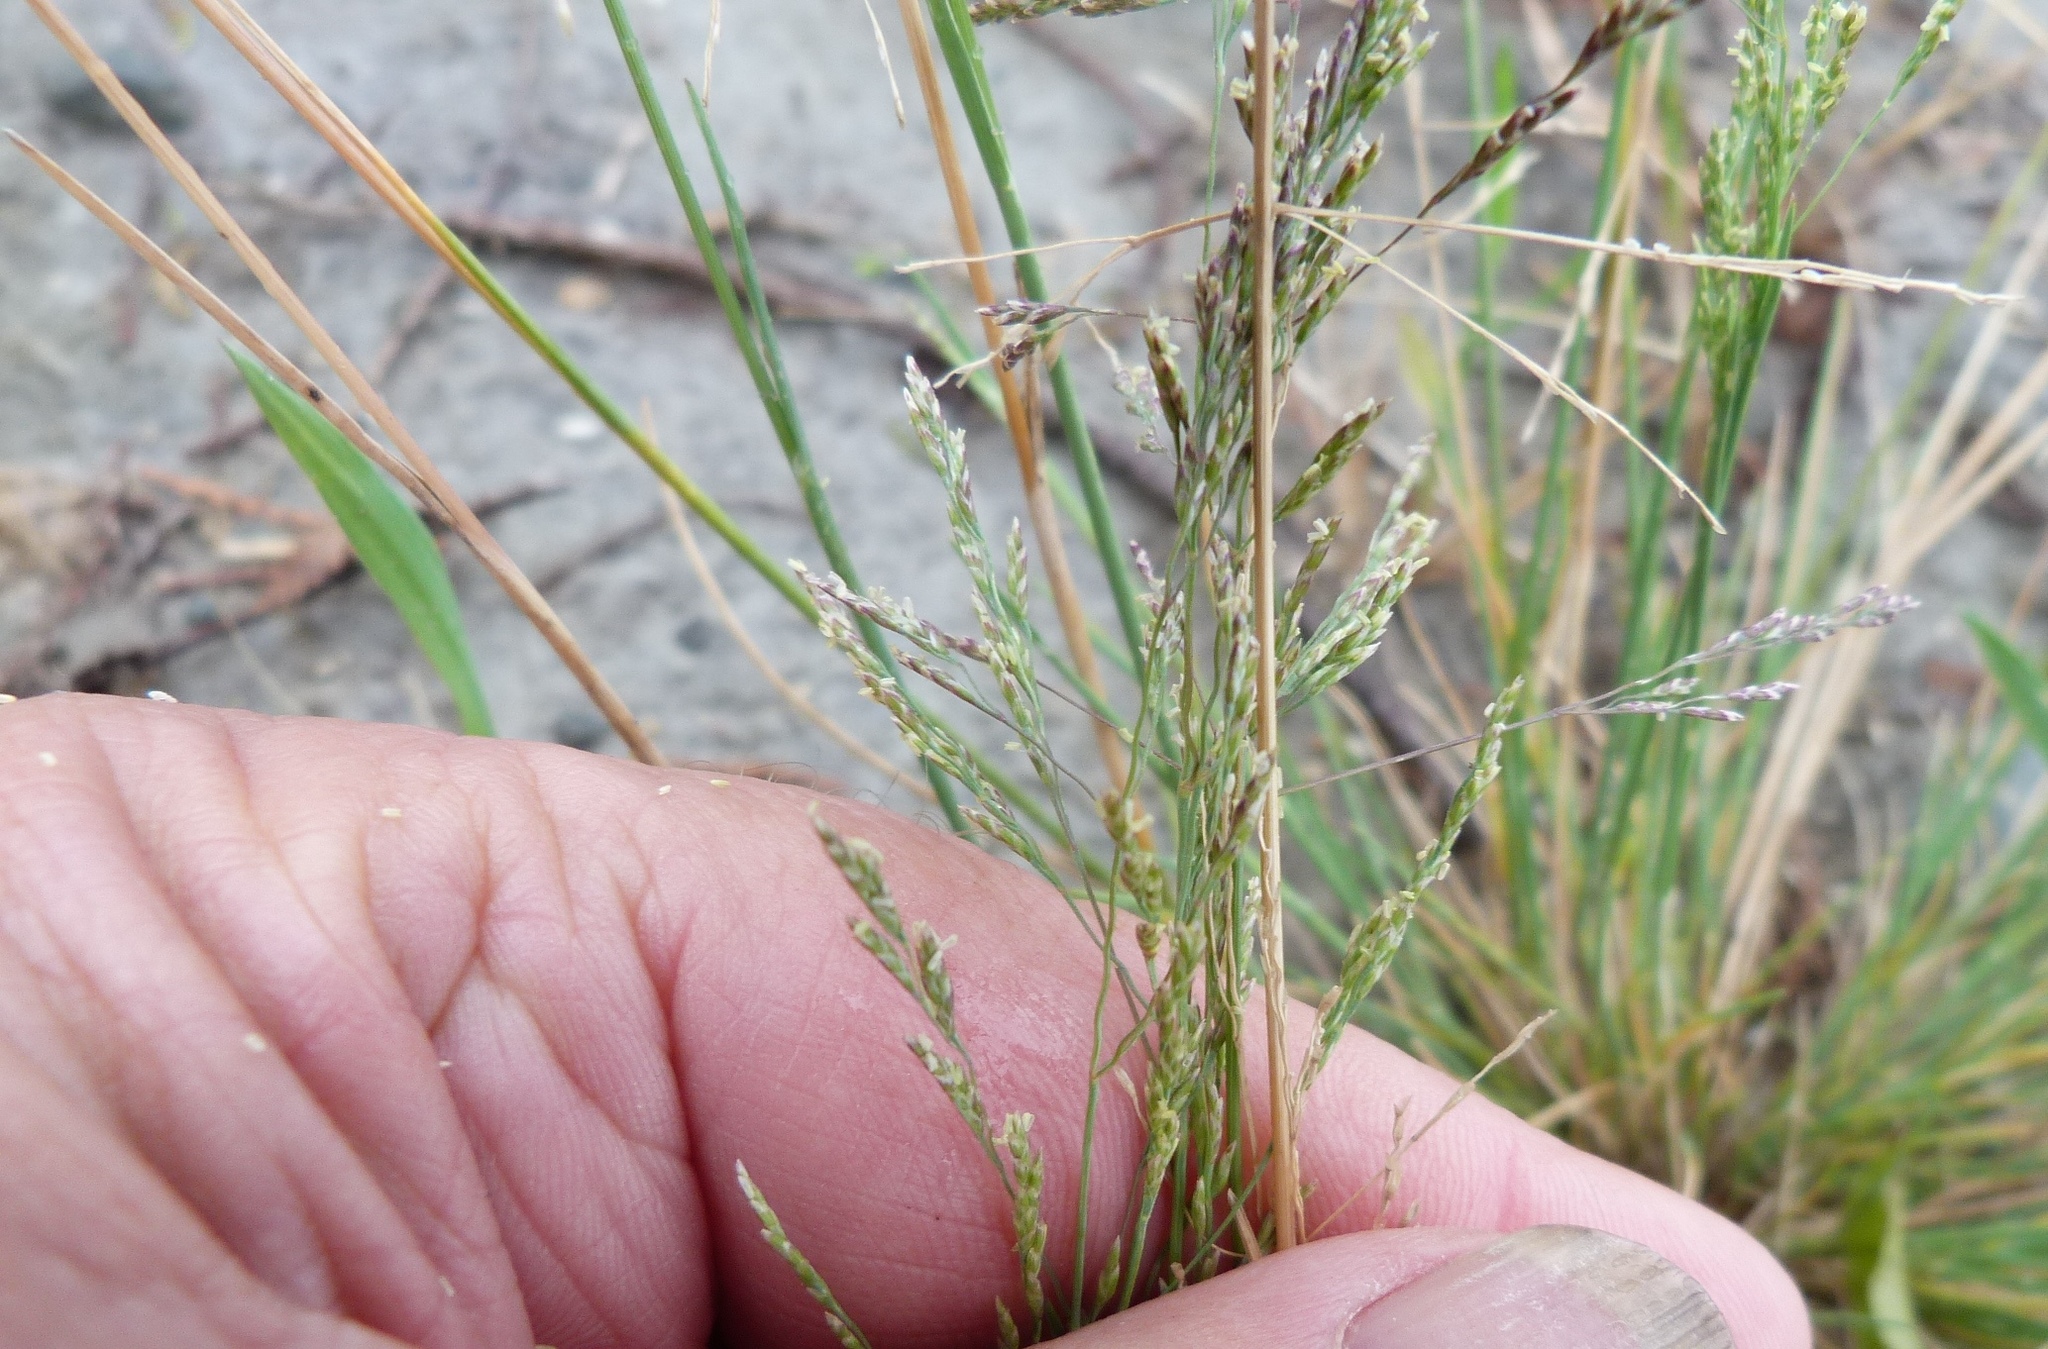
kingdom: Plantae
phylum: Tracheophyta
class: Liliopsida
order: Poales
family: Poaceae
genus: Puccinellia
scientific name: Puccinellia stricta
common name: Australian saltmarsh grass
